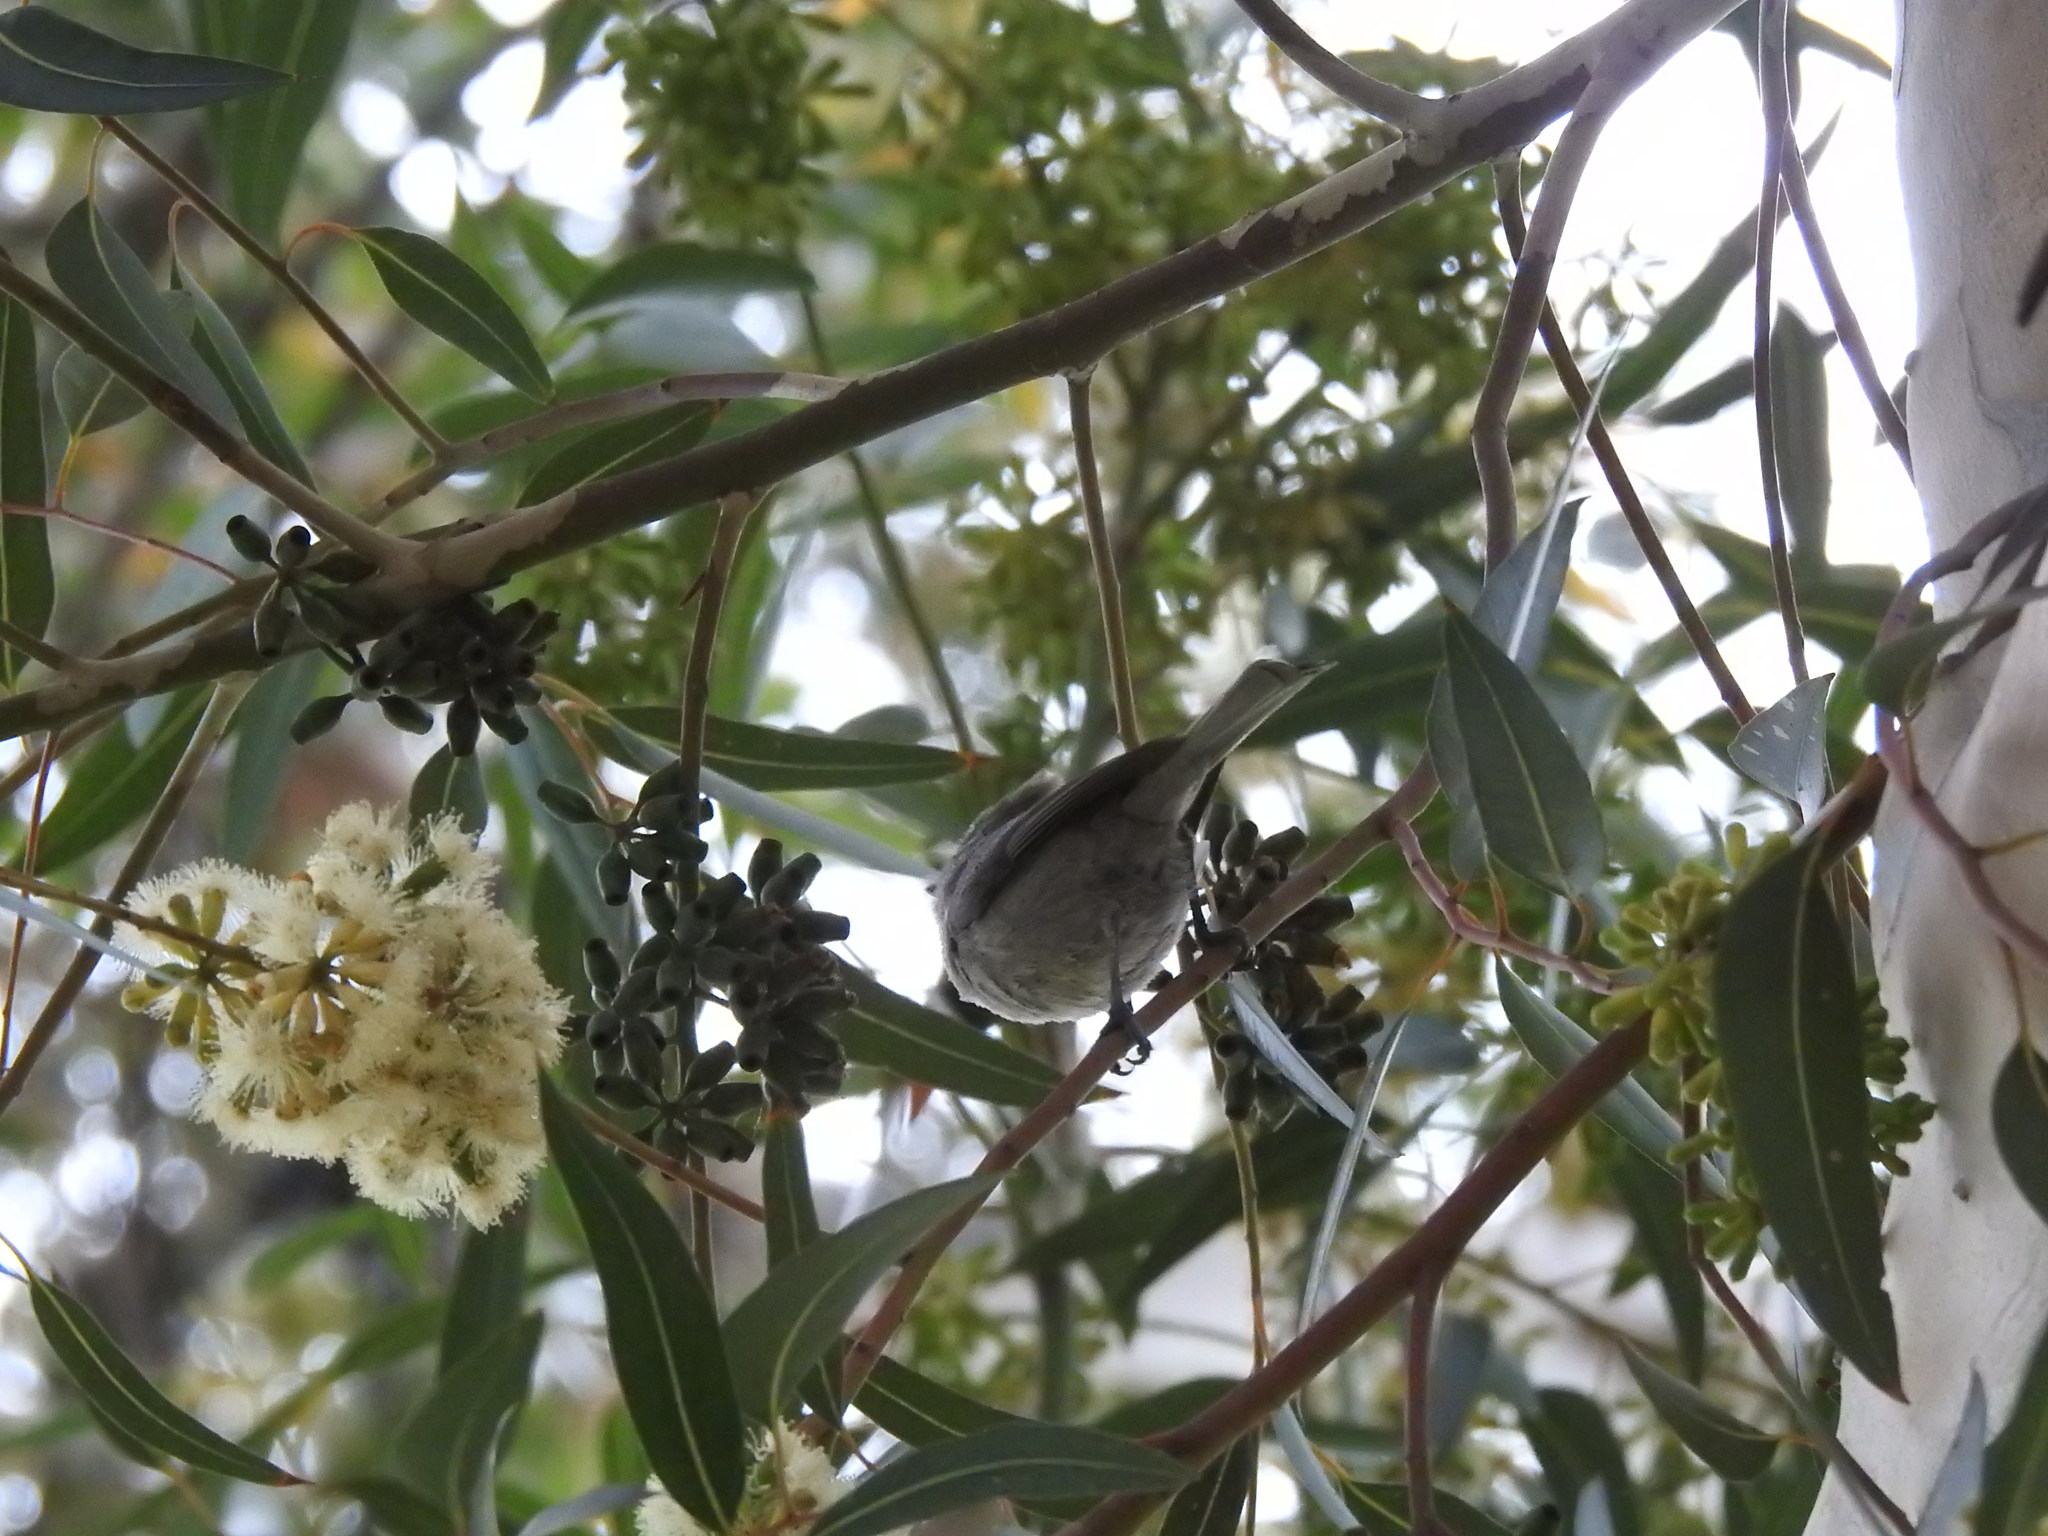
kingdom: Animalia
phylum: Chordata
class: Aves
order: Passeriformes
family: Paridae
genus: Baeolophus
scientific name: Baeolophus inornatus
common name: Oak titmouse
